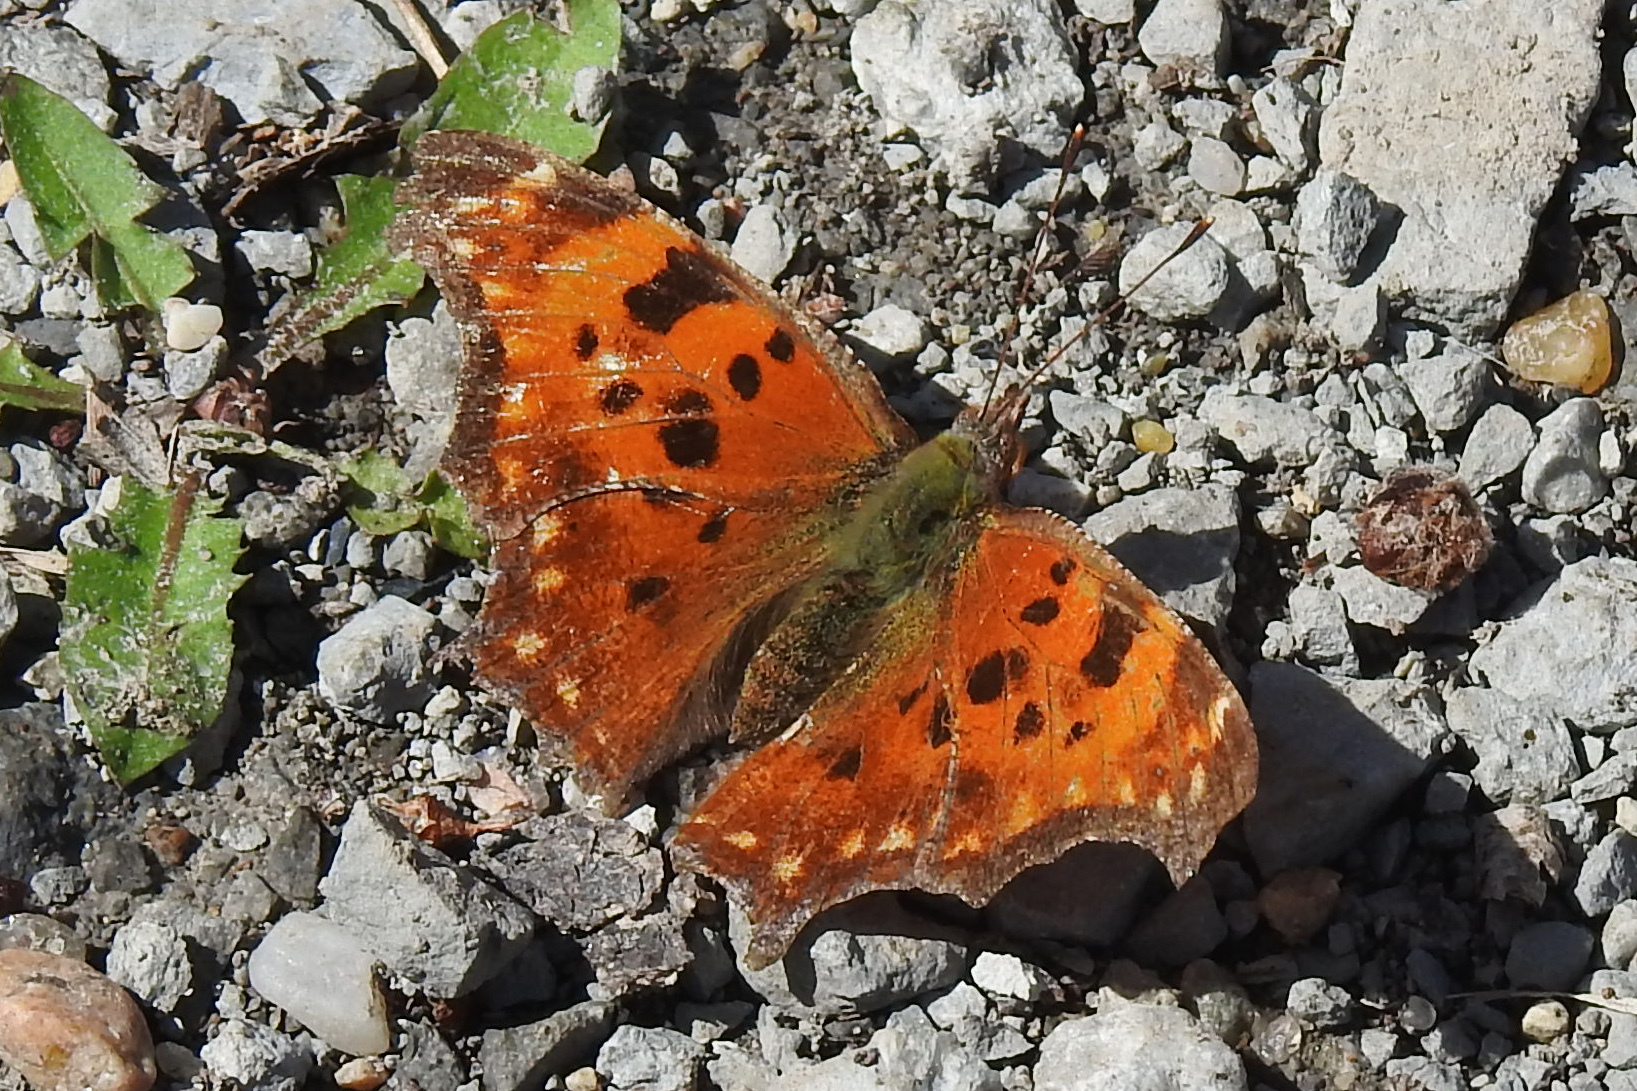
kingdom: Animalia
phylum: Arthropoda
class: Insecta
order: Lepidoptera
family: Nymphalidae
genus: Polygonia
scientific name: Polygonia comma
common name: Eastern comma
